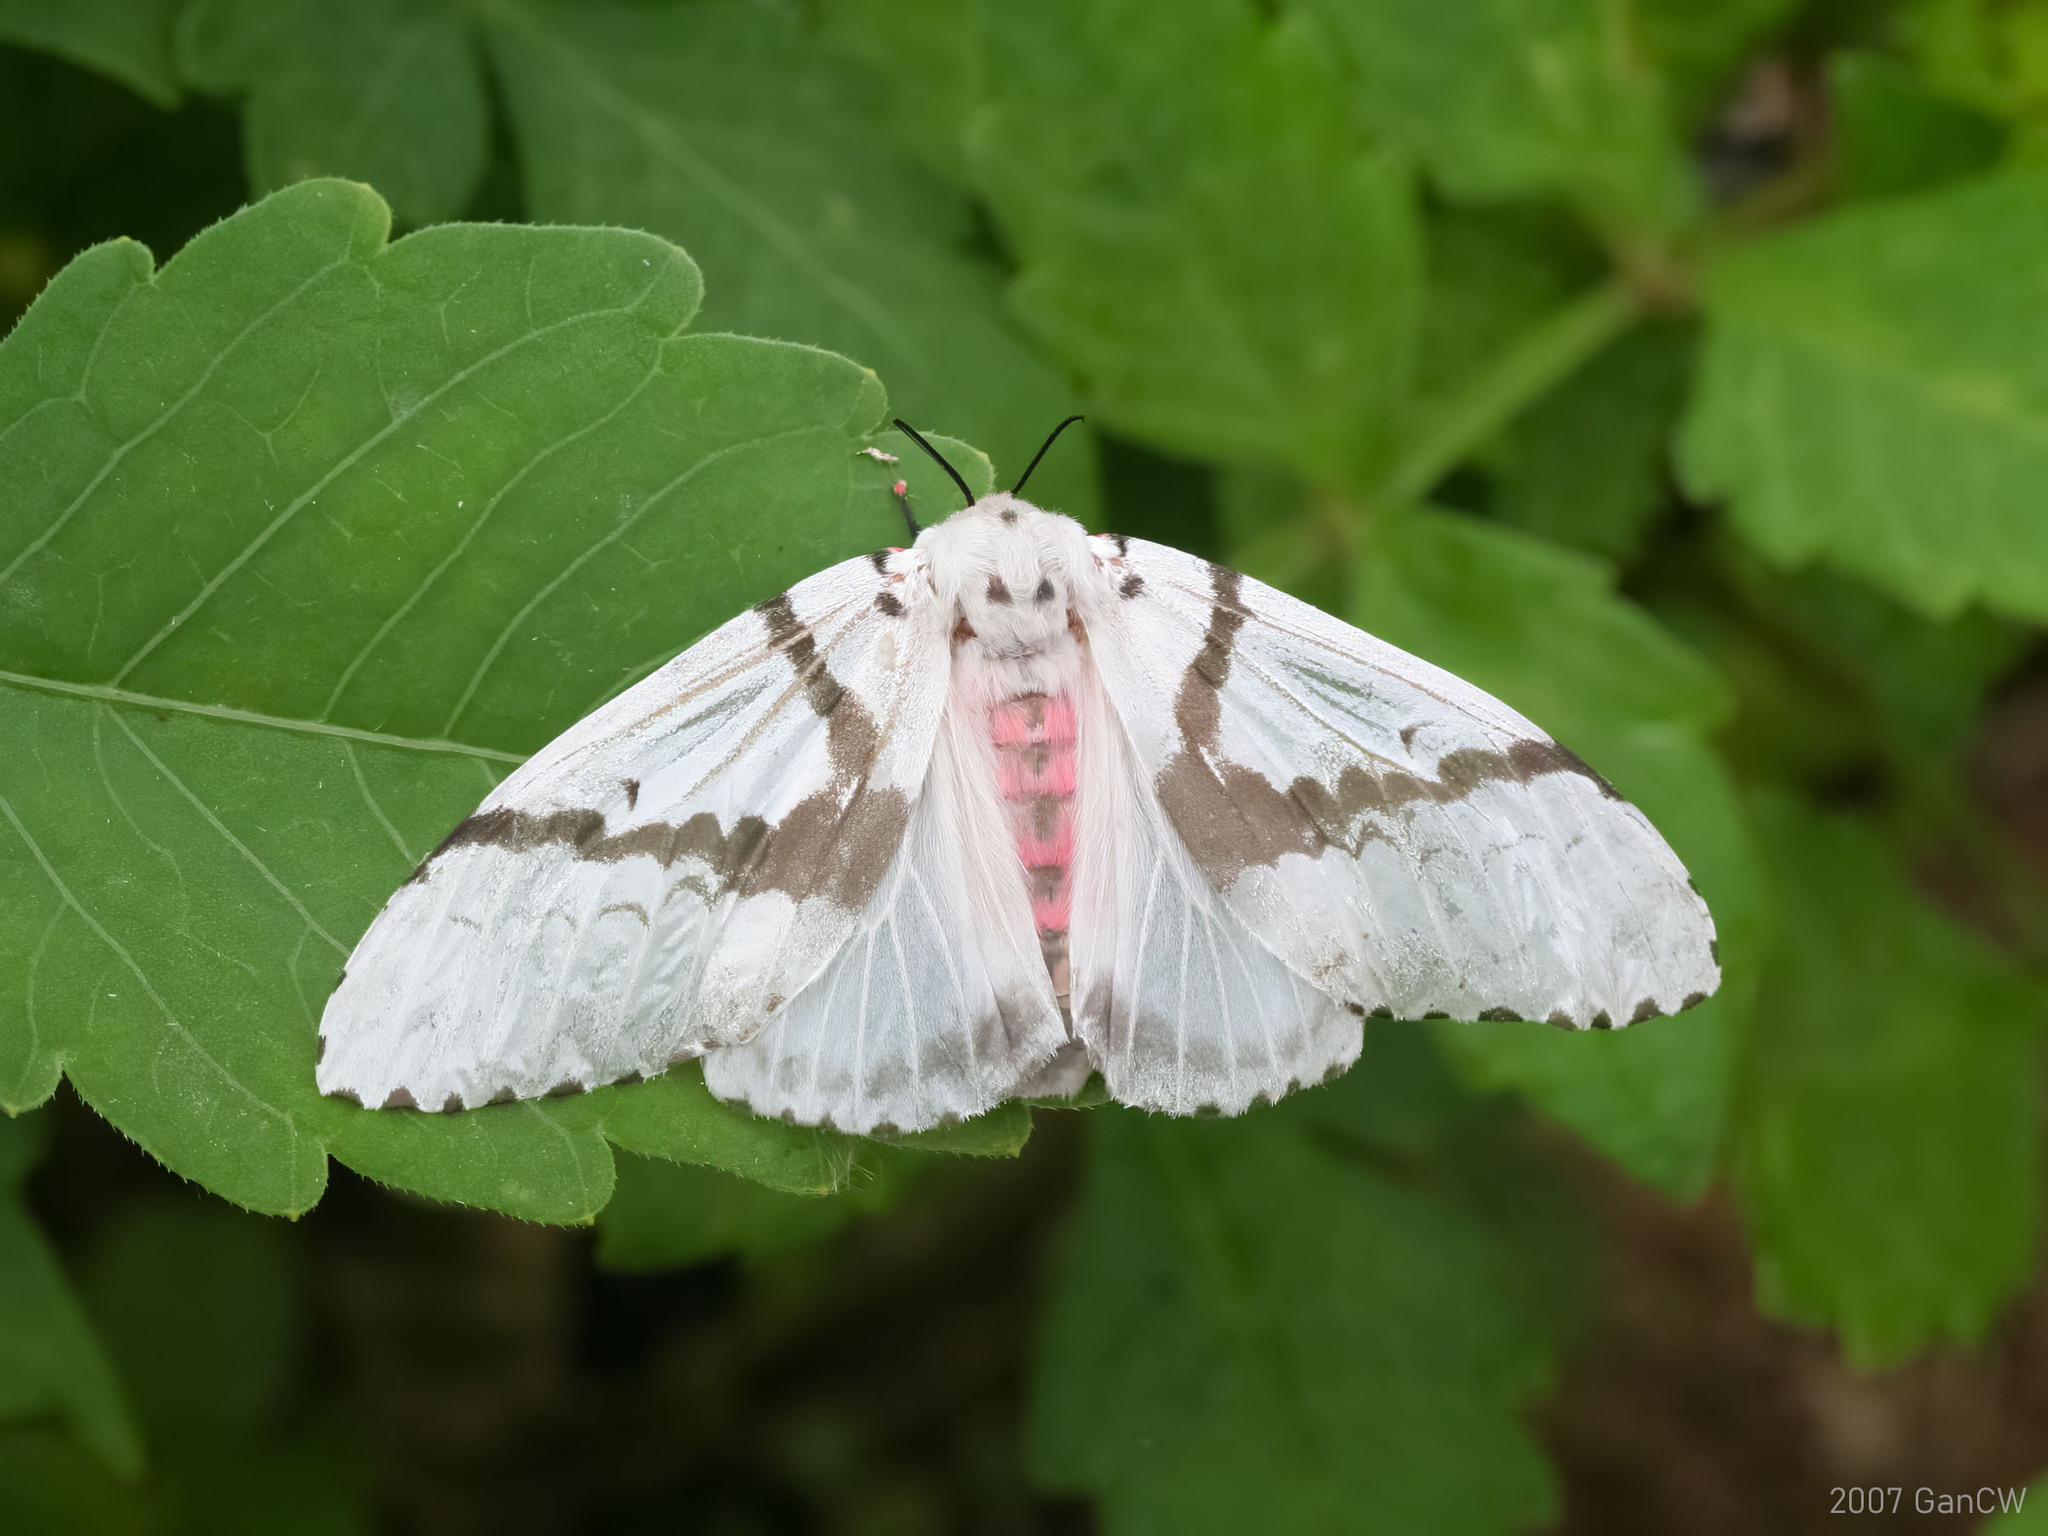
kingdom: Animalia
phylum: Arthropoda
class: Insecta
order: Lepidoptera
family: Erebidae
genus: Lymantria
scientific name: Lymantria marginalis
